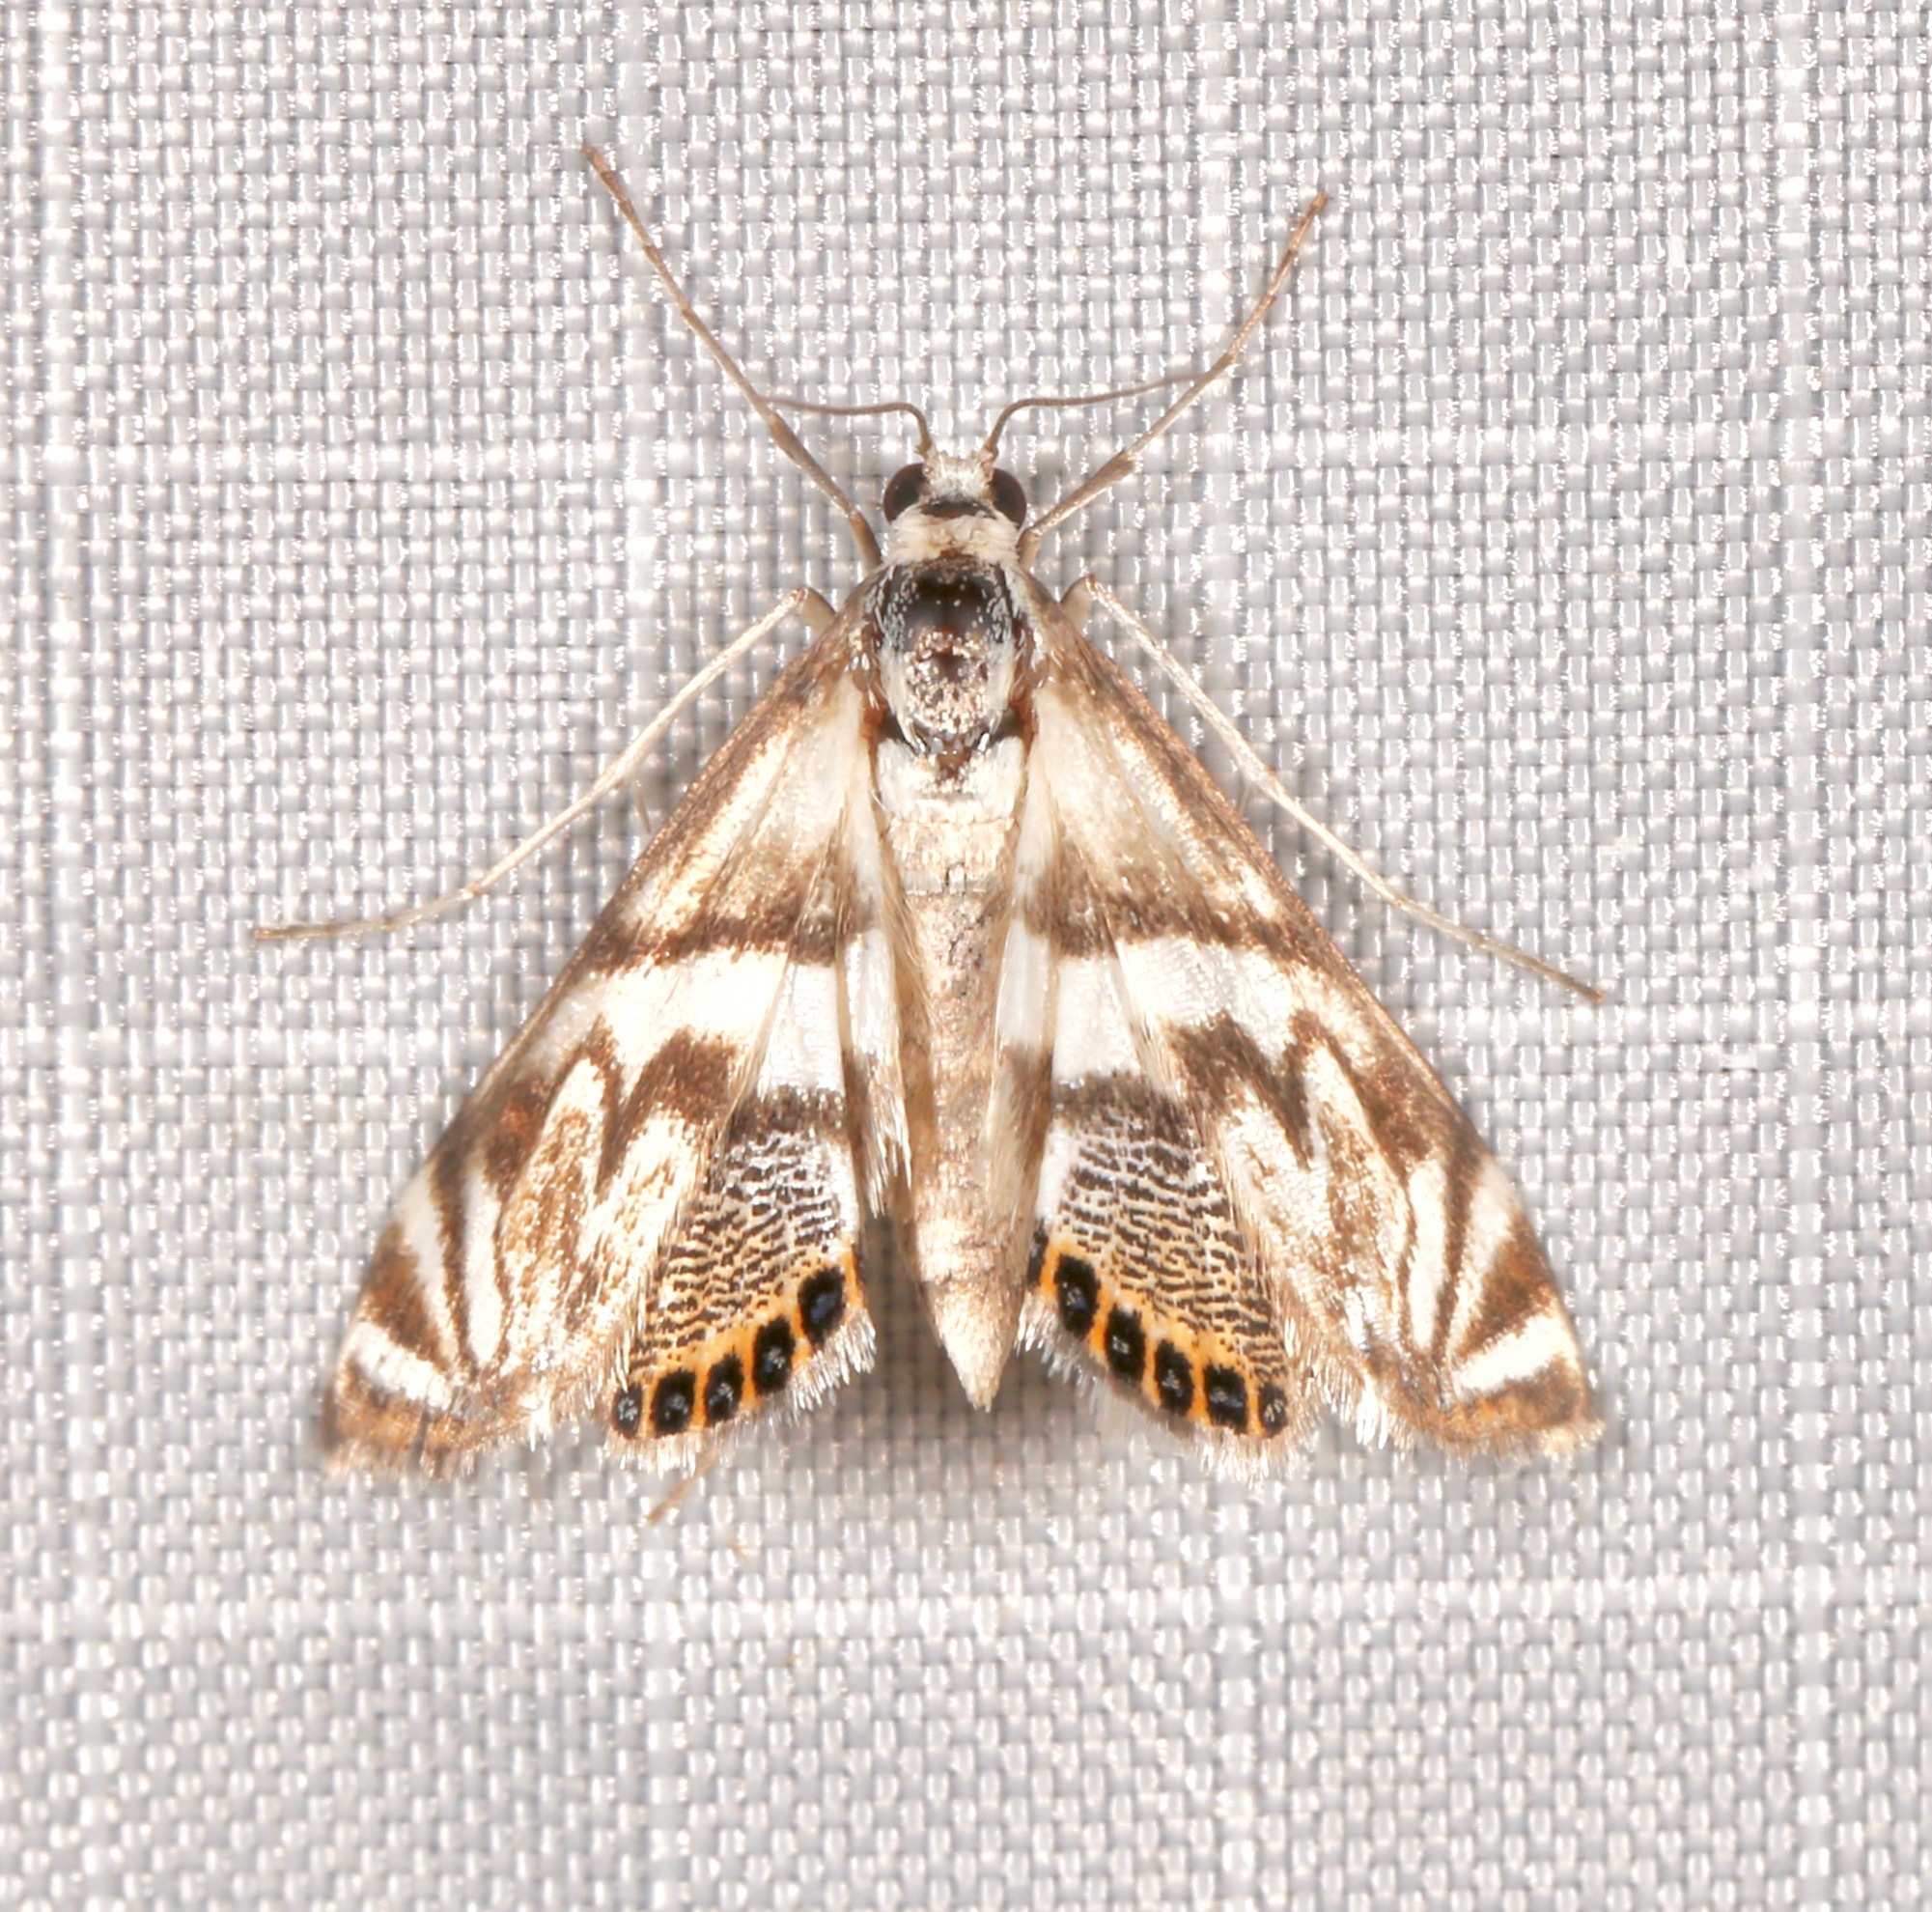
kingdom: Animalia
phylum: Arthropoda
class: Insecta
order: Lepidoptera
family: Crambidae
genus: Neocataclysta
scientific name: Neocataclysta magnificalis
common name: Scrollwork pyralid moth
